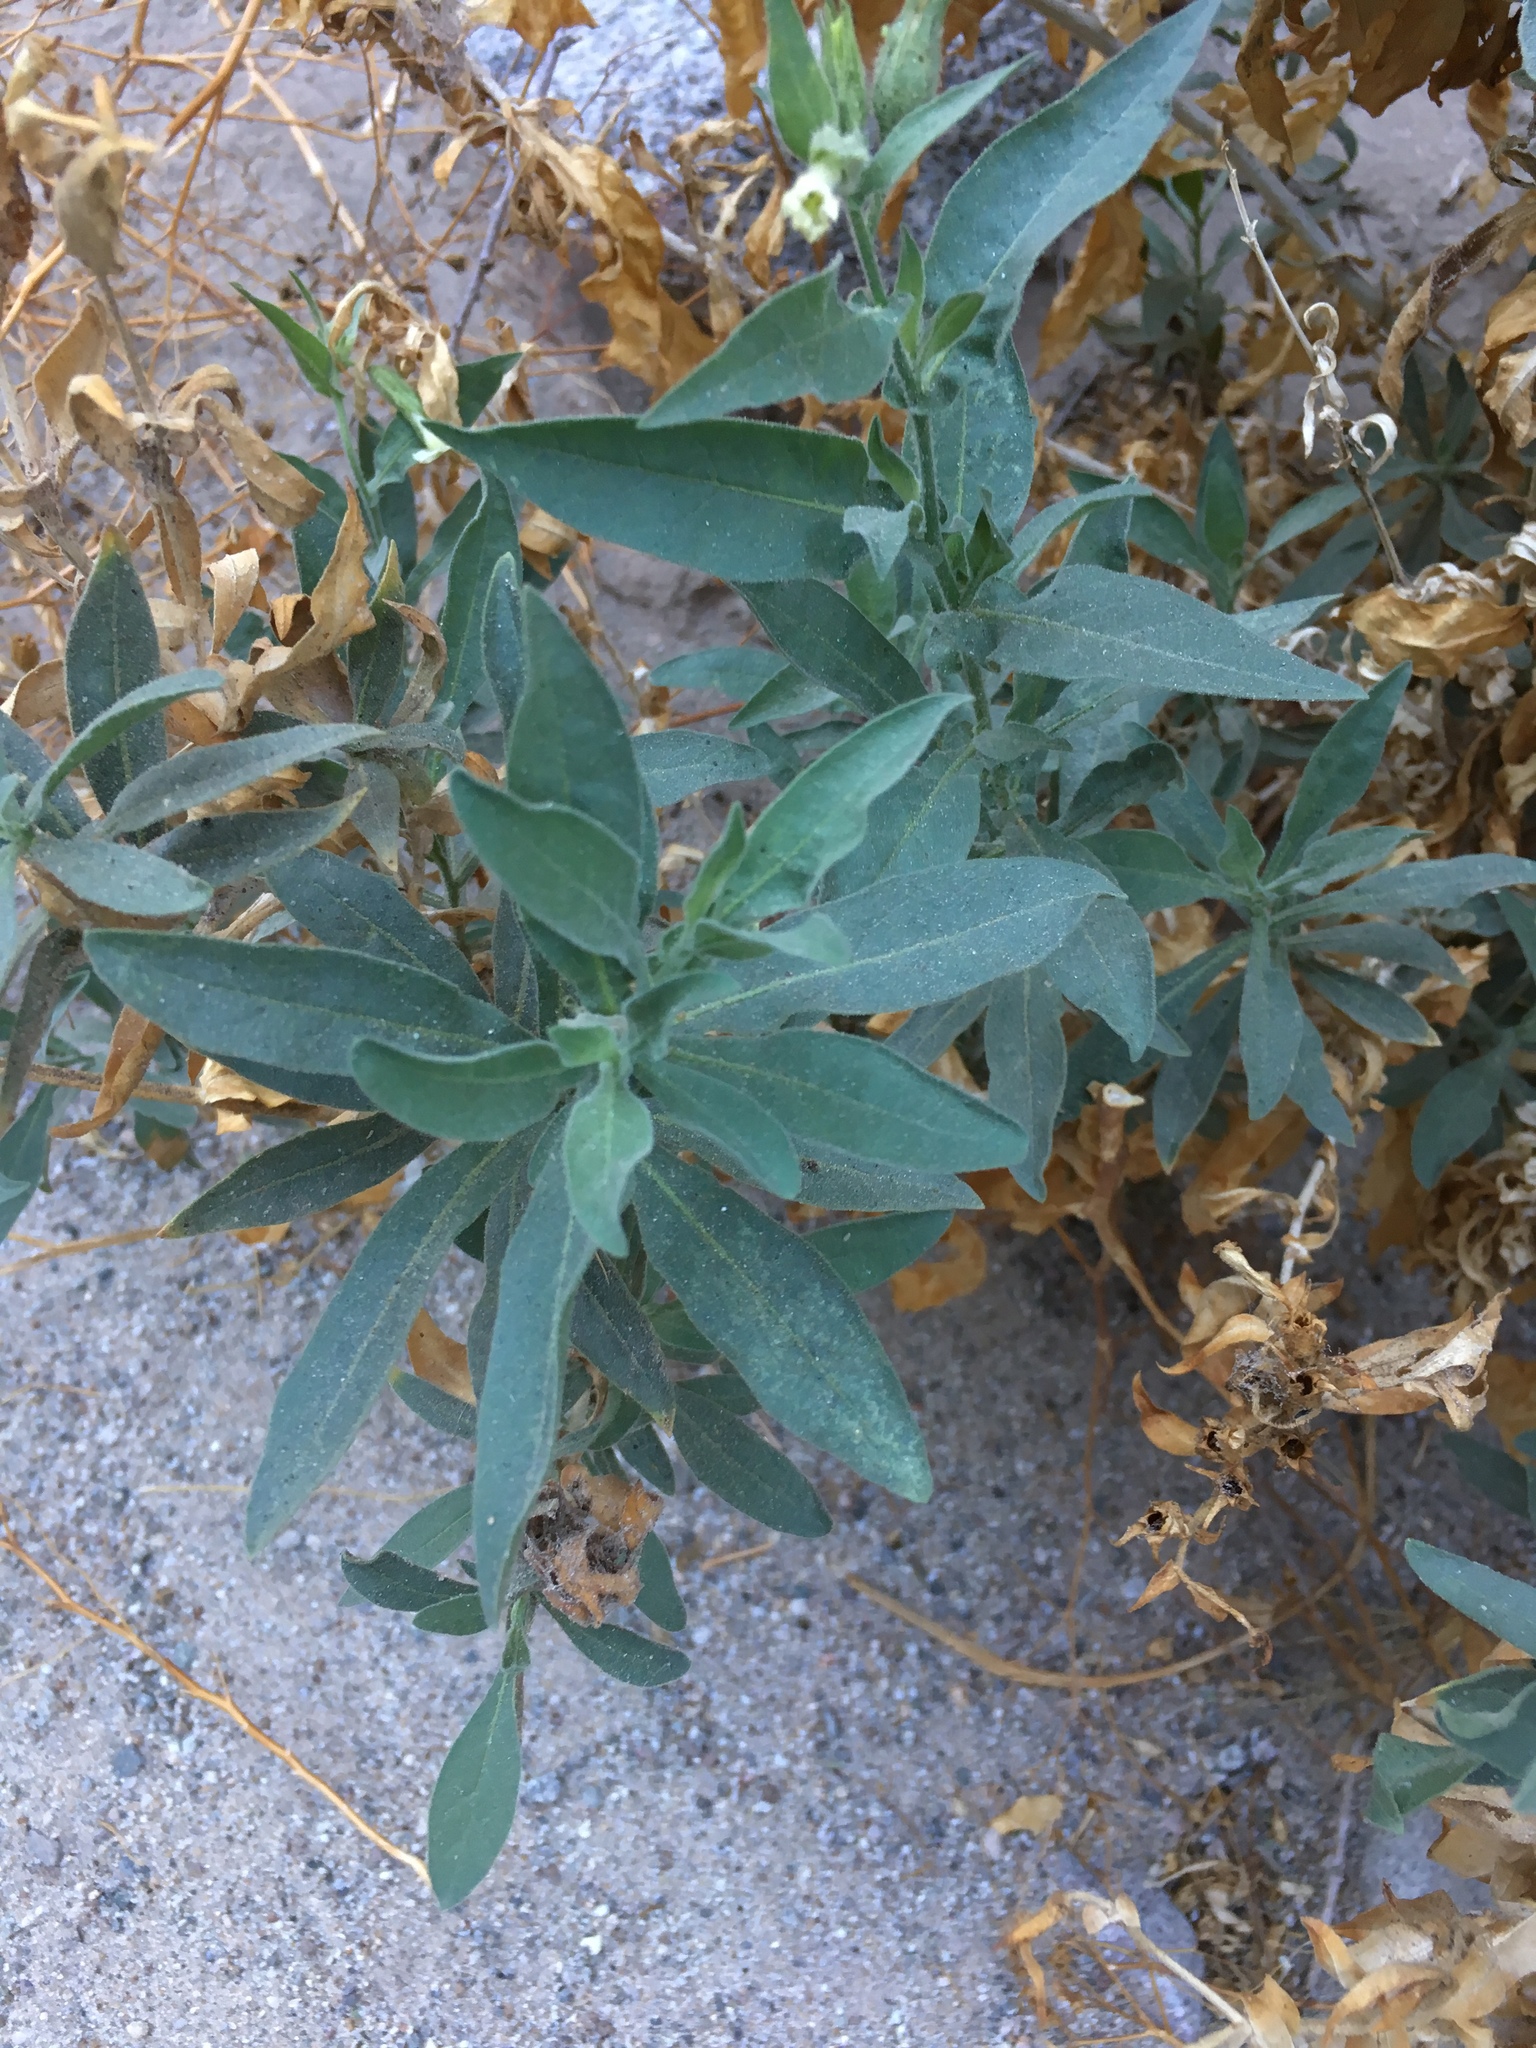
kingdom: Plantae
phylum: Tracheophyta
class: Magnoliopsida
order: Solanales
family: Solanaceae
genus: Nicotiana
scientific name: Nicotiana obtusifolia
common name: Desert tobacco
